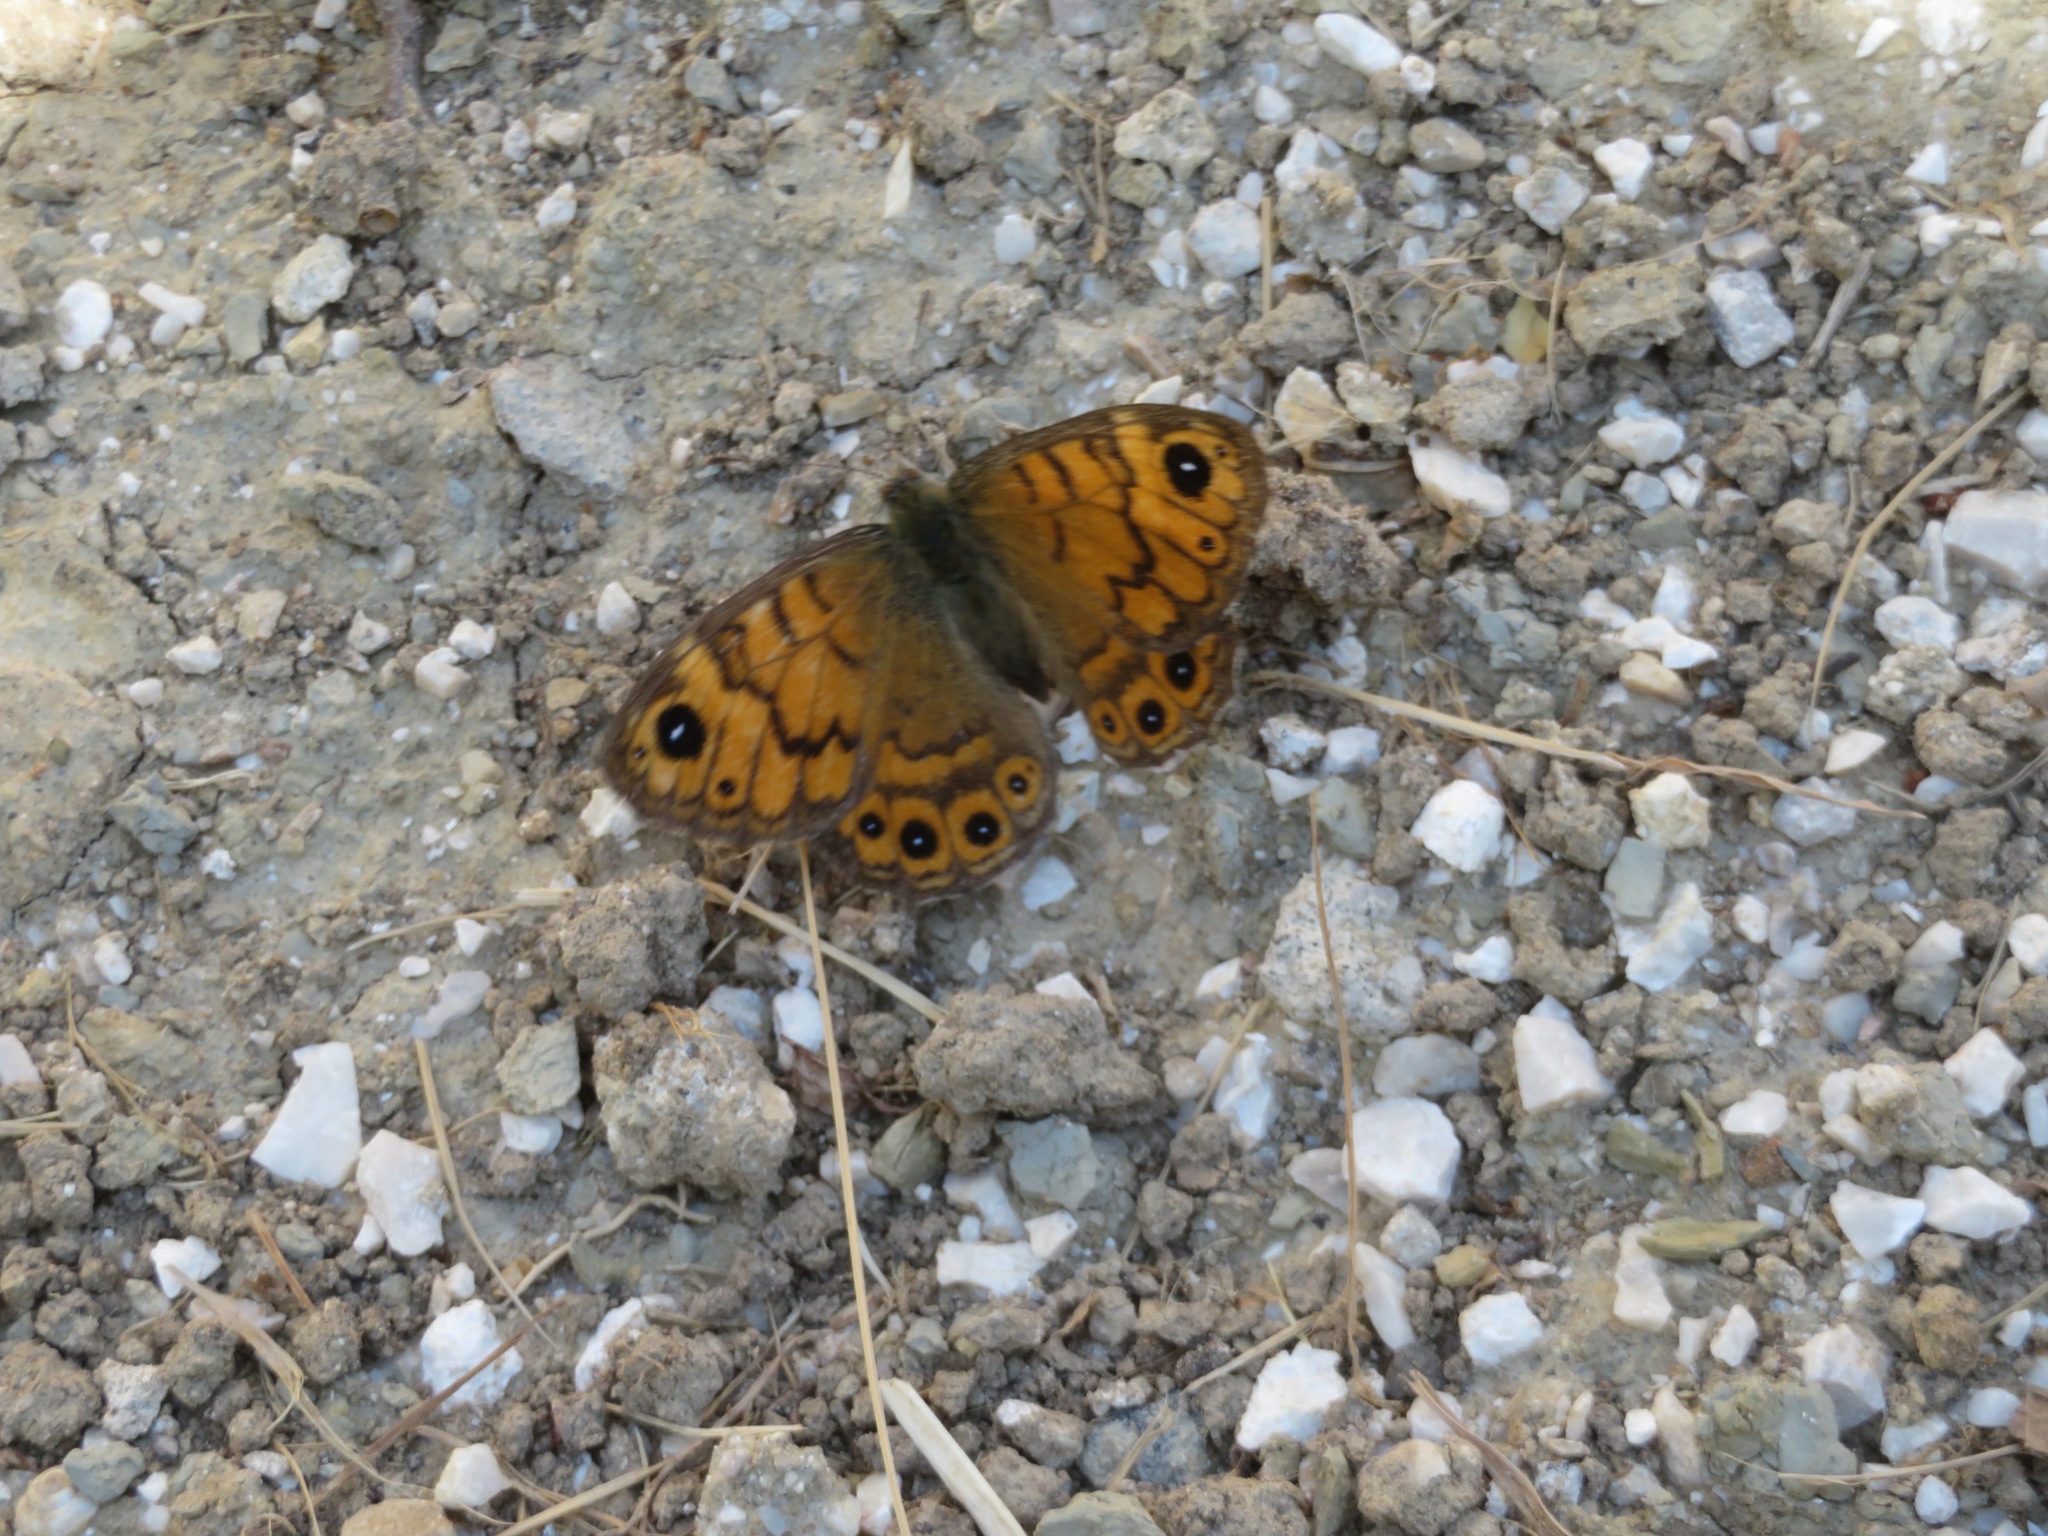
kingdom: Animalia
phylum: Arthropoda
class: Insecta
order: Lepidoptera
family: Nymphalidae
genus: Pararge
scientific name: Pararge Lasiommata megera
